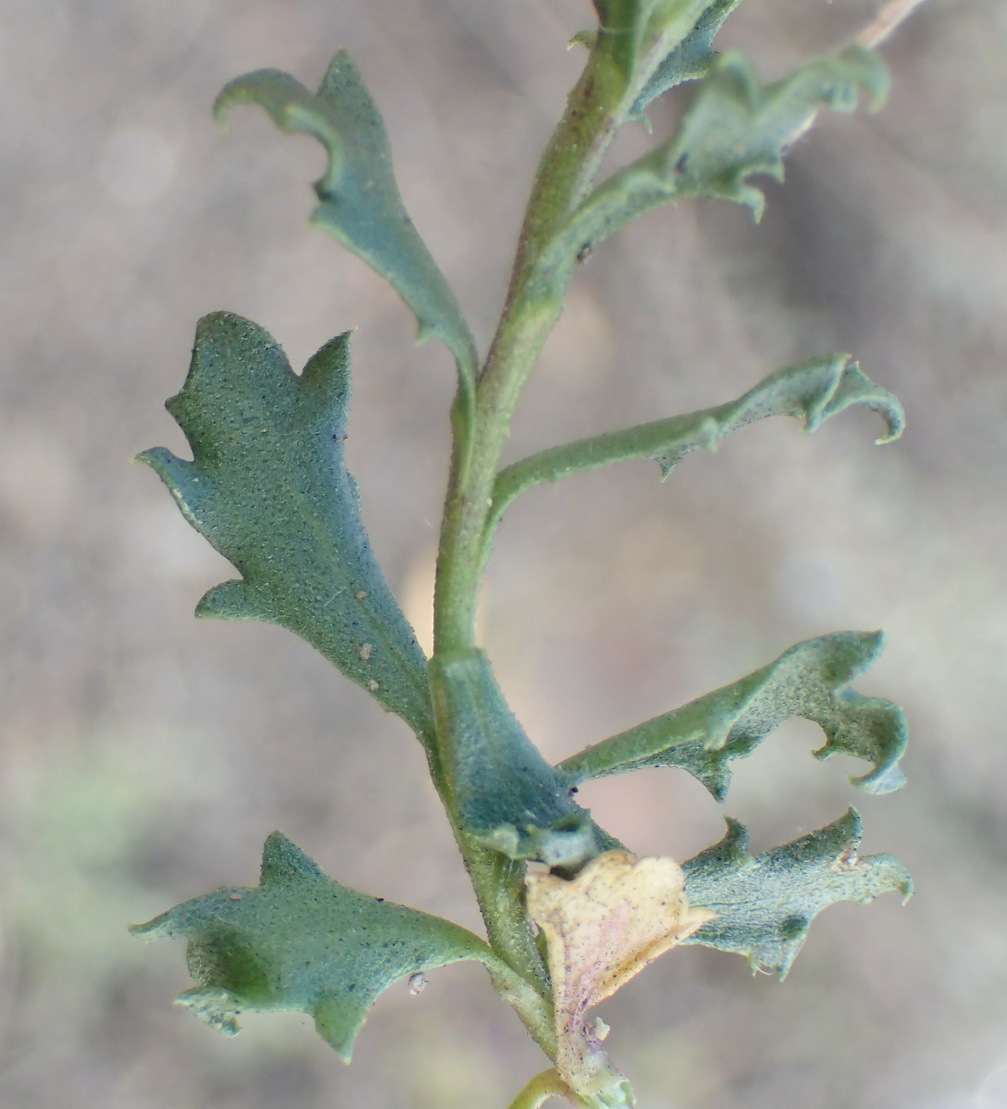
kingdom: Plantae
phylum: Tracheophyta
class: Magnoliopsida
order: Asterales
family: Asteraceae
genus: Dimorphotheca
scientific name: Dimorphotheca cuneata
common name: Daisy
